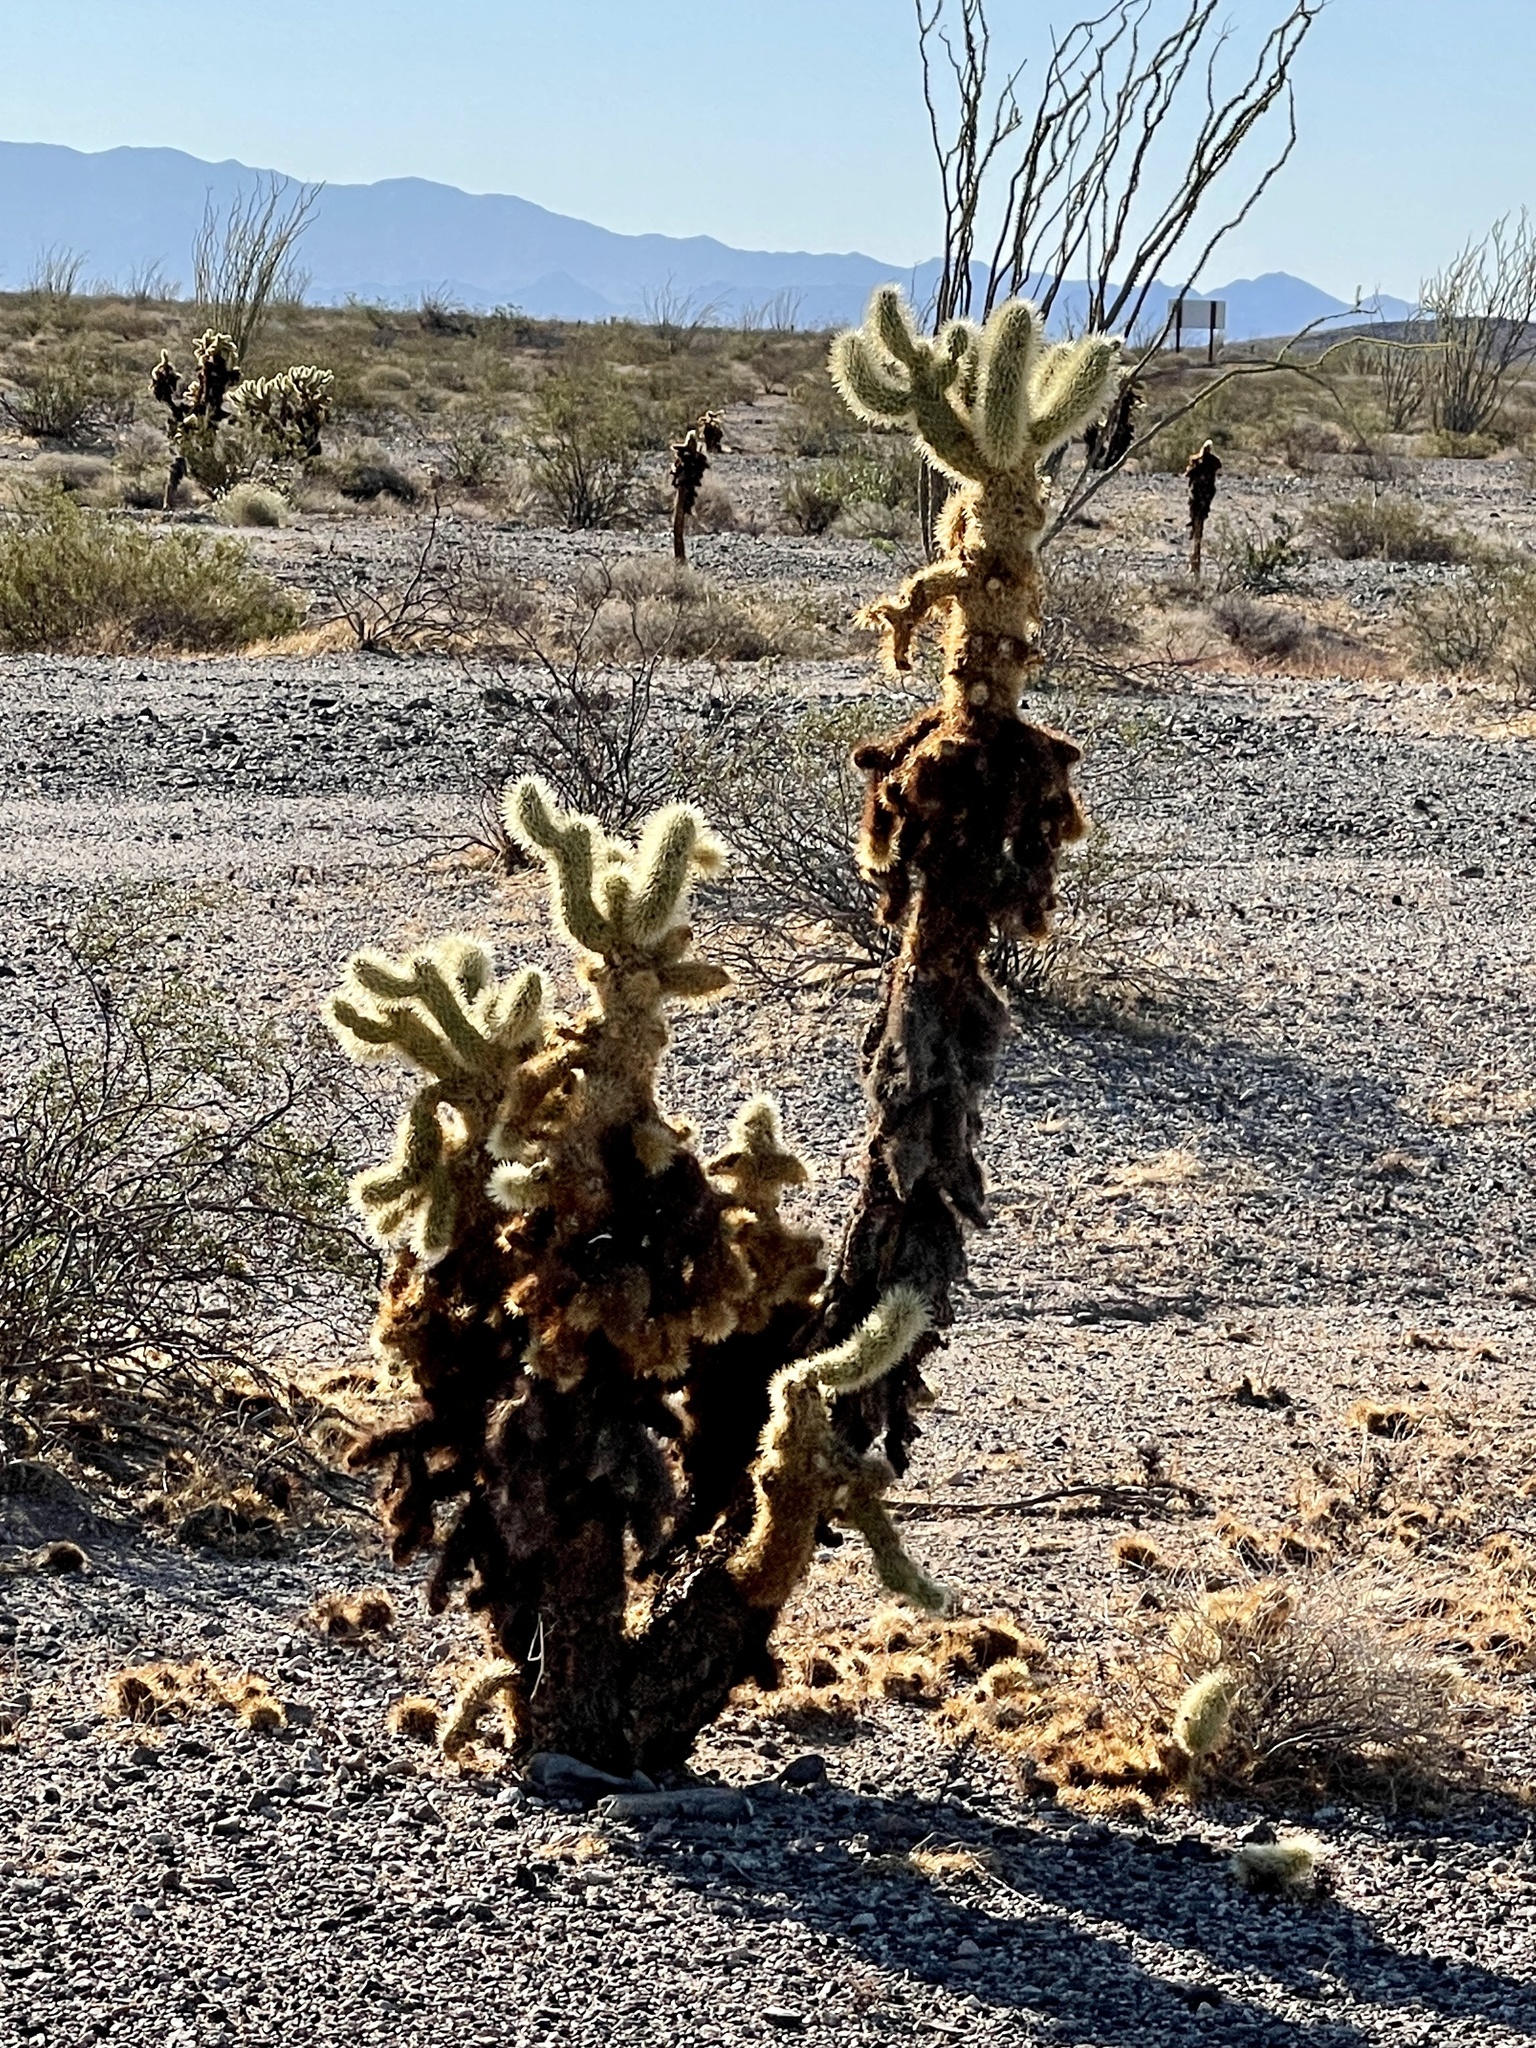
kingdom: Plantae
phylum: Tracheophyta
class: Magnoliopsida
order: Caryophyllales
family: Cactaceae
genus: Cylindropuntia
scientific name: Cylindropuntia fosbergii
